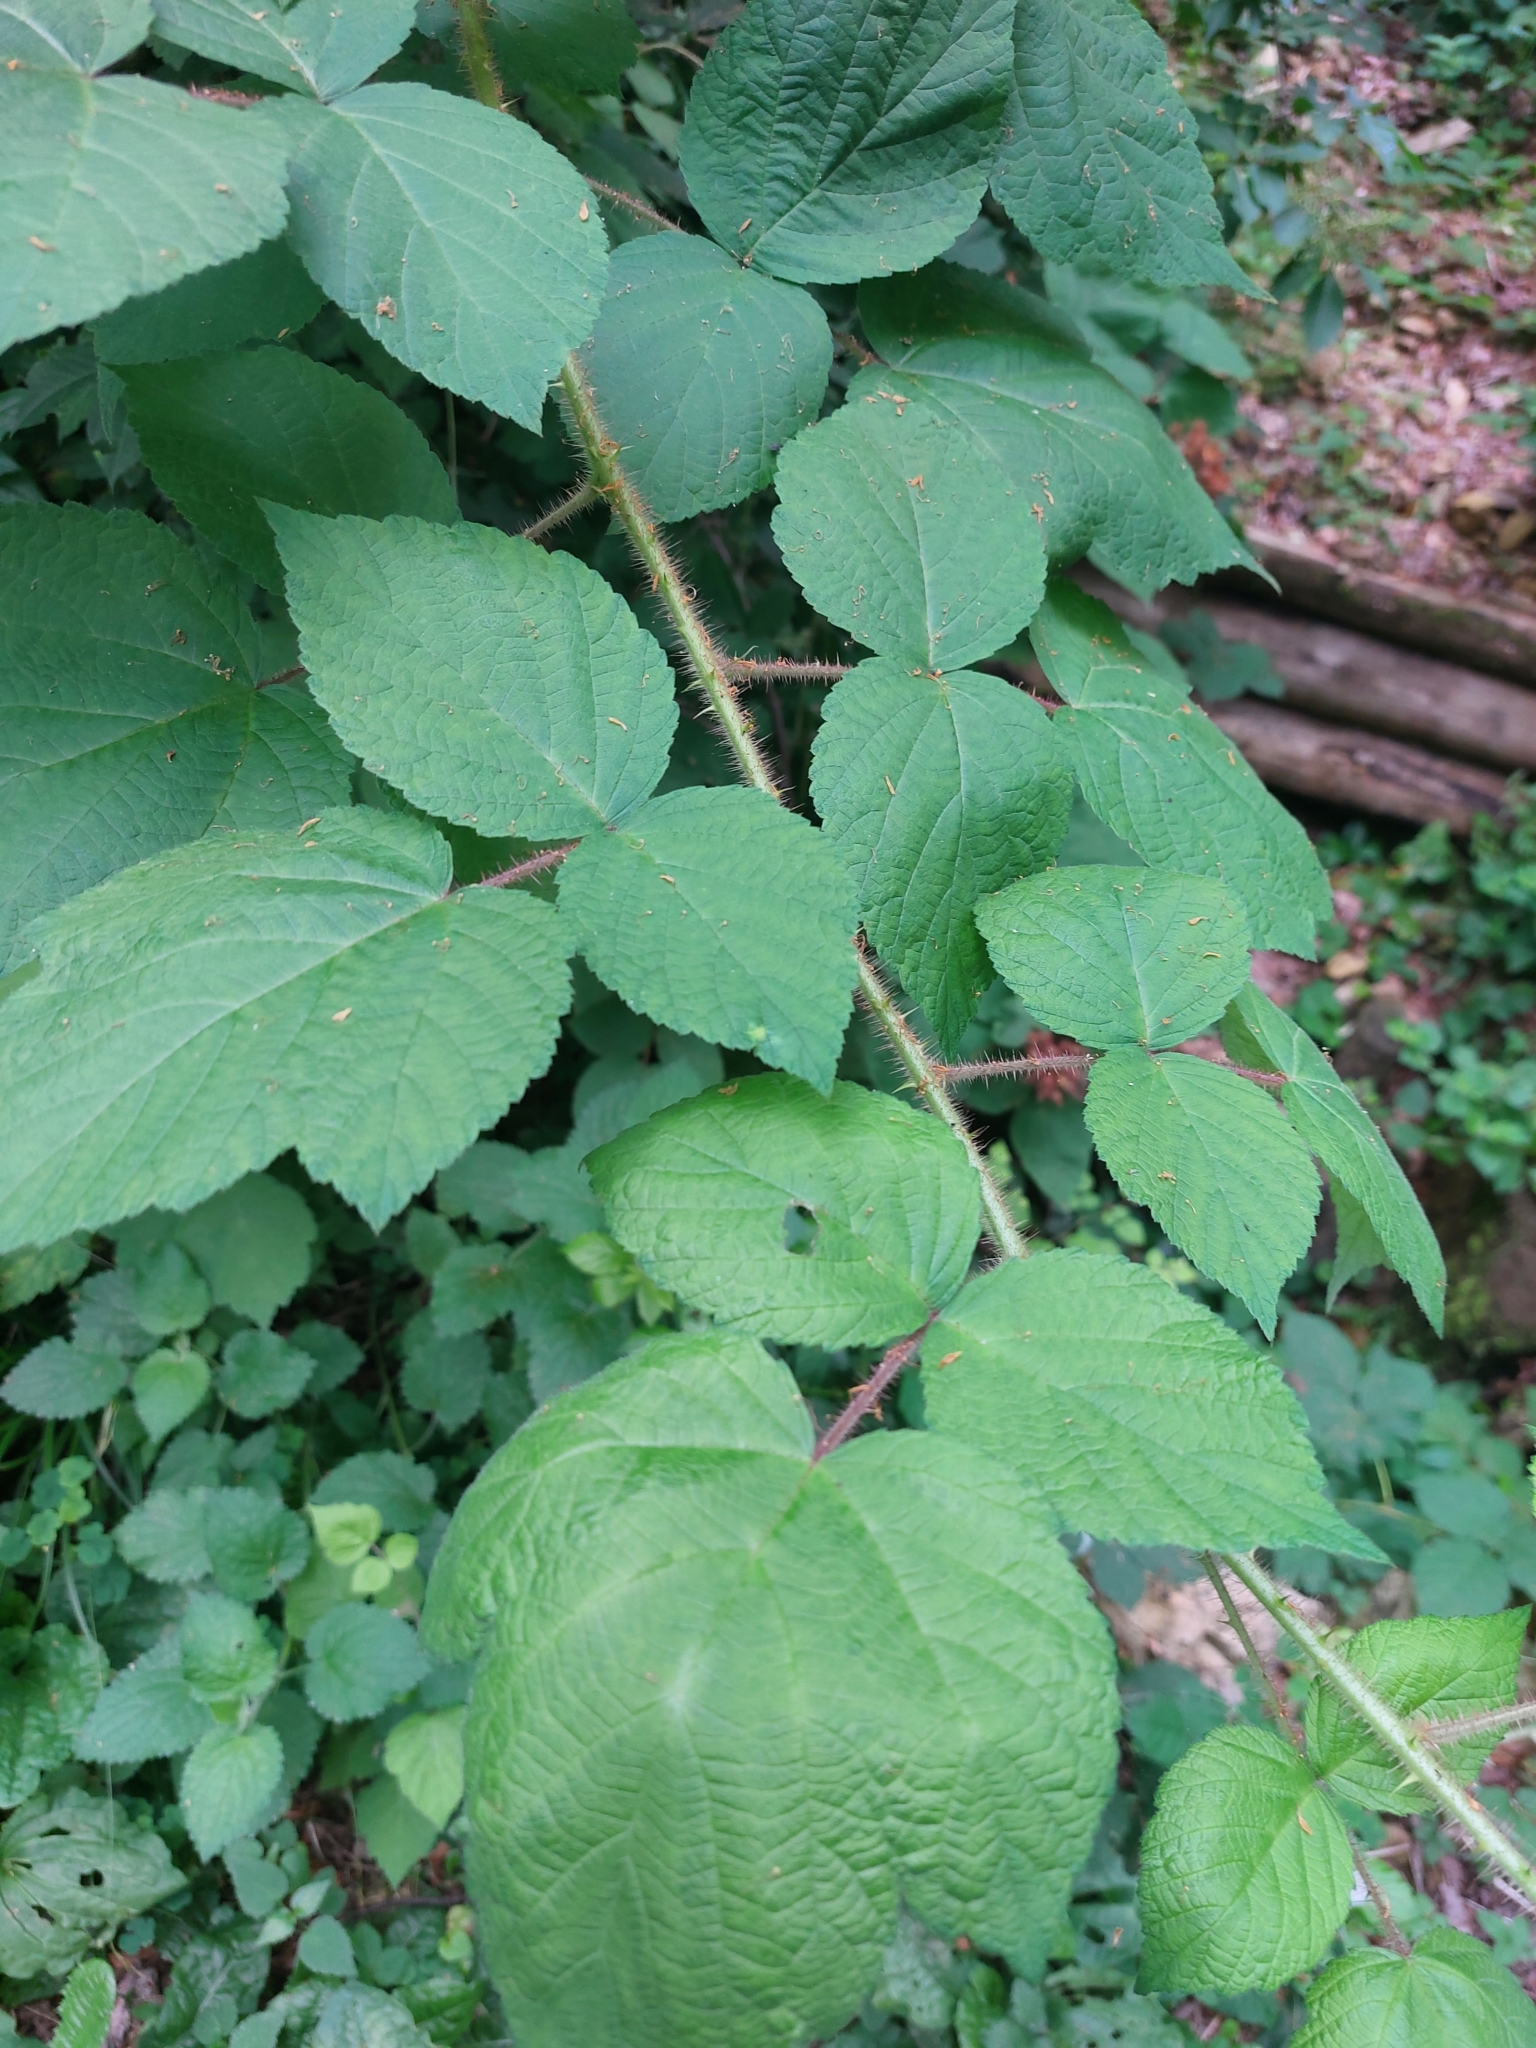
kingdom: Plantae
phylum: Tracheophyta
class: Magnoliopsida
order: Rosales
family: Rosaceae
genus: Rubus
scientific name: Rubus phoenicolasius
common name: Japanese wineberry
